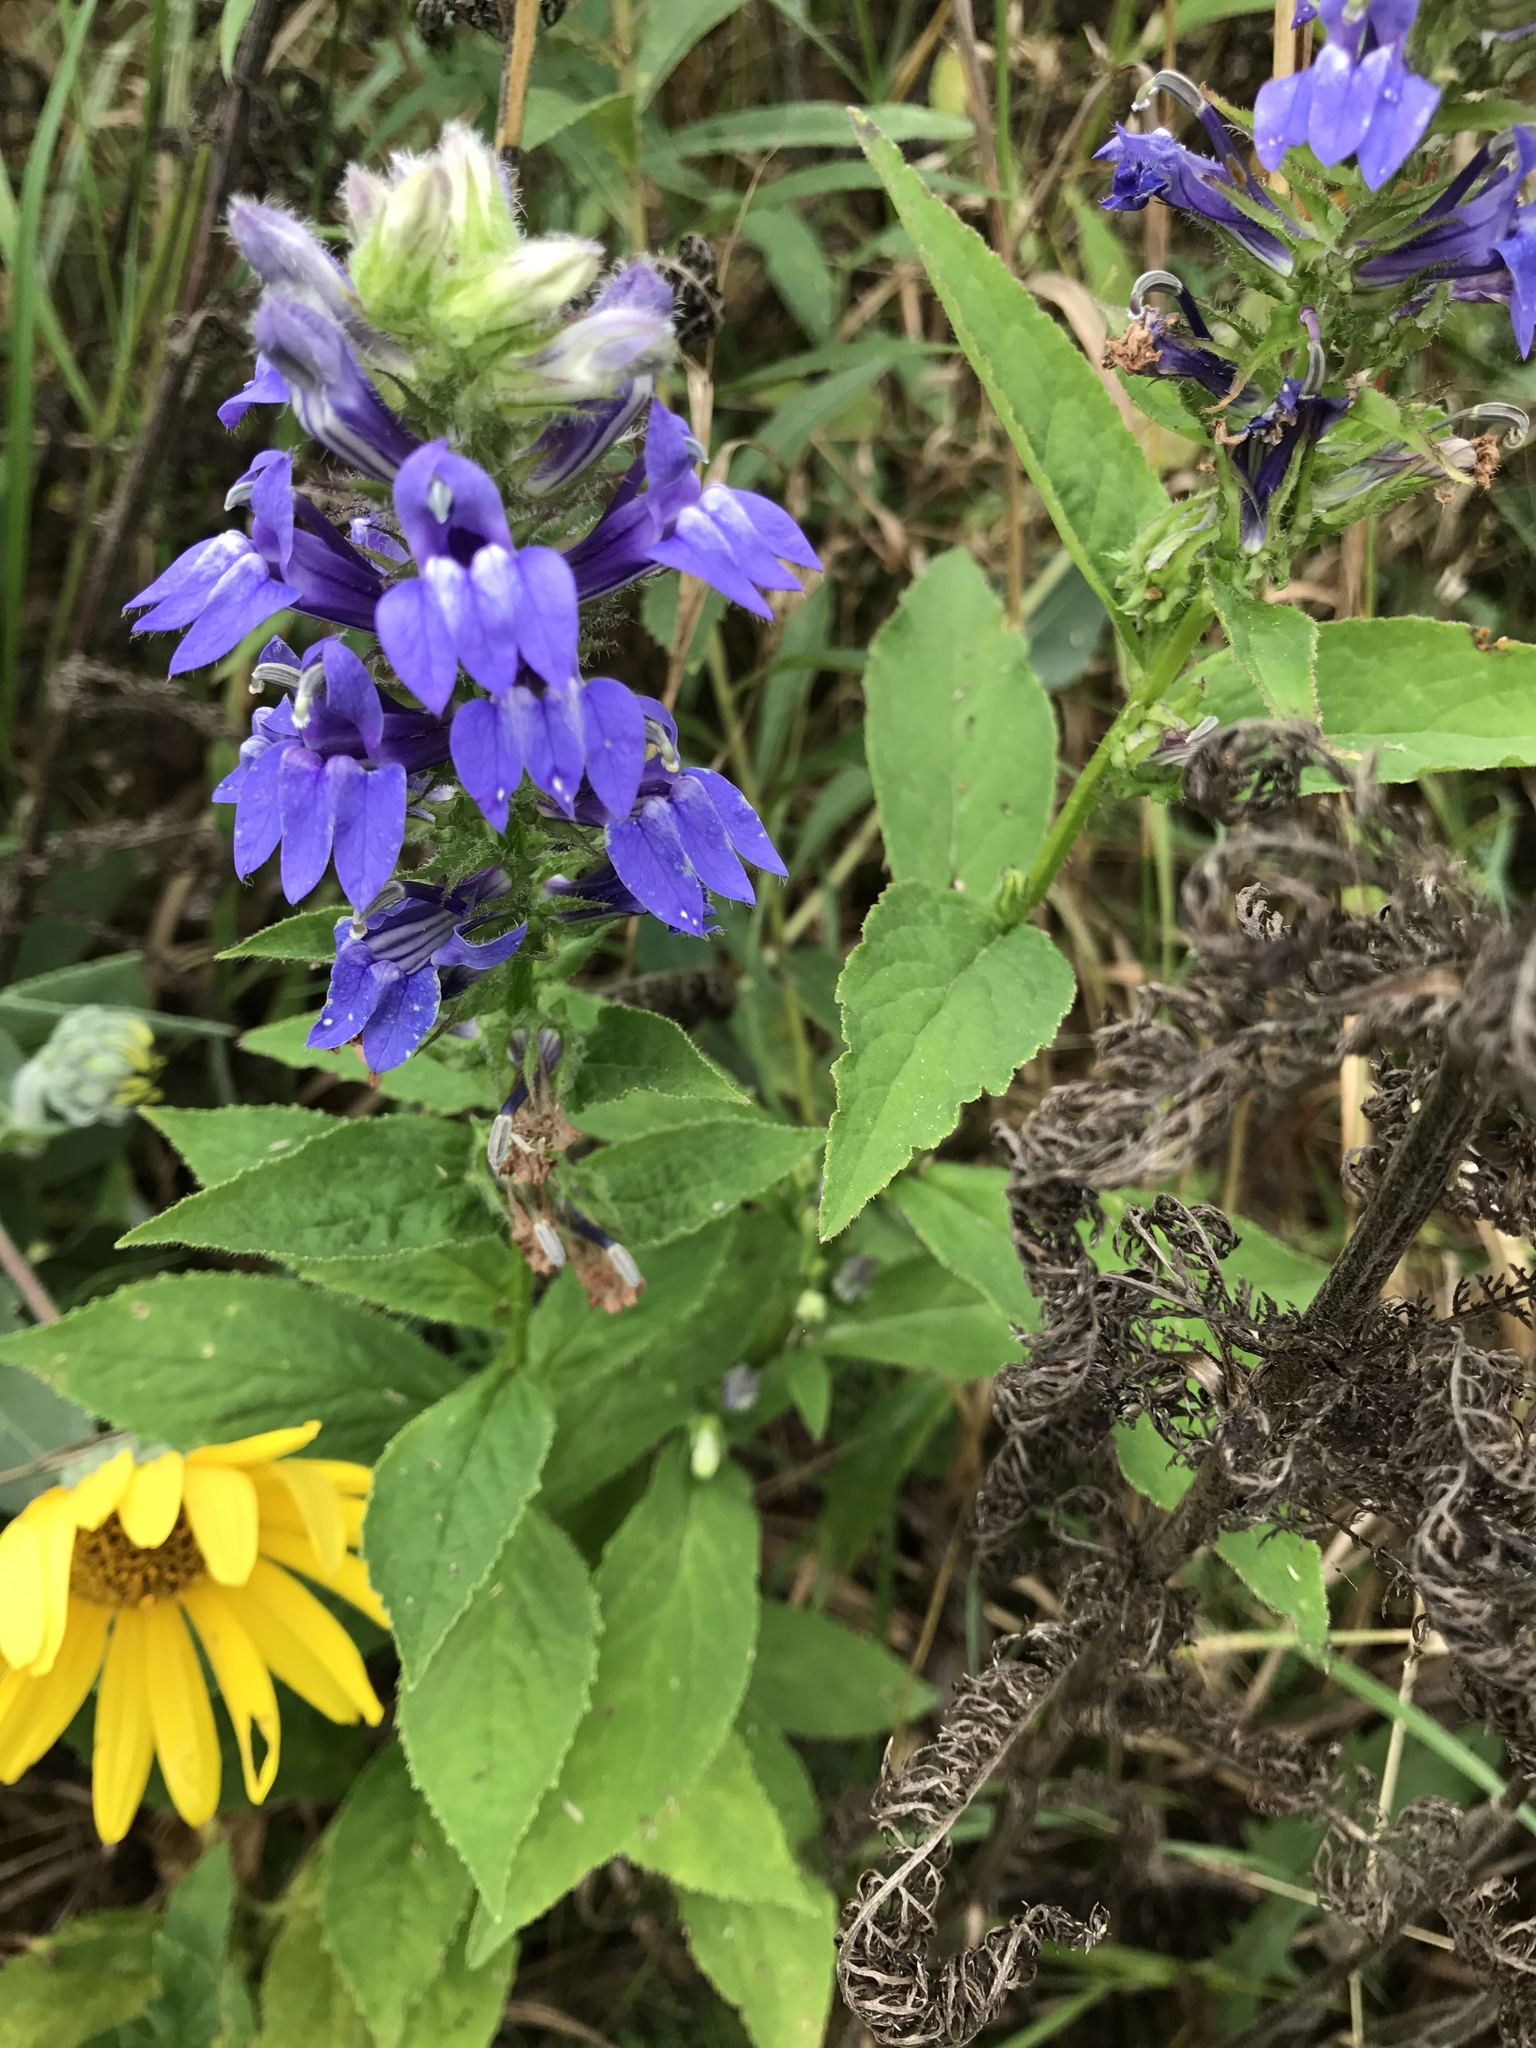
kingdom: Plantae
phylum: Tracheophyta
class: Magnoliopsida
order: Asterales
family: Campanulaceae
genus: Lobelia
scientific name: Lobelia siphilitica
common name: Great lobelia
